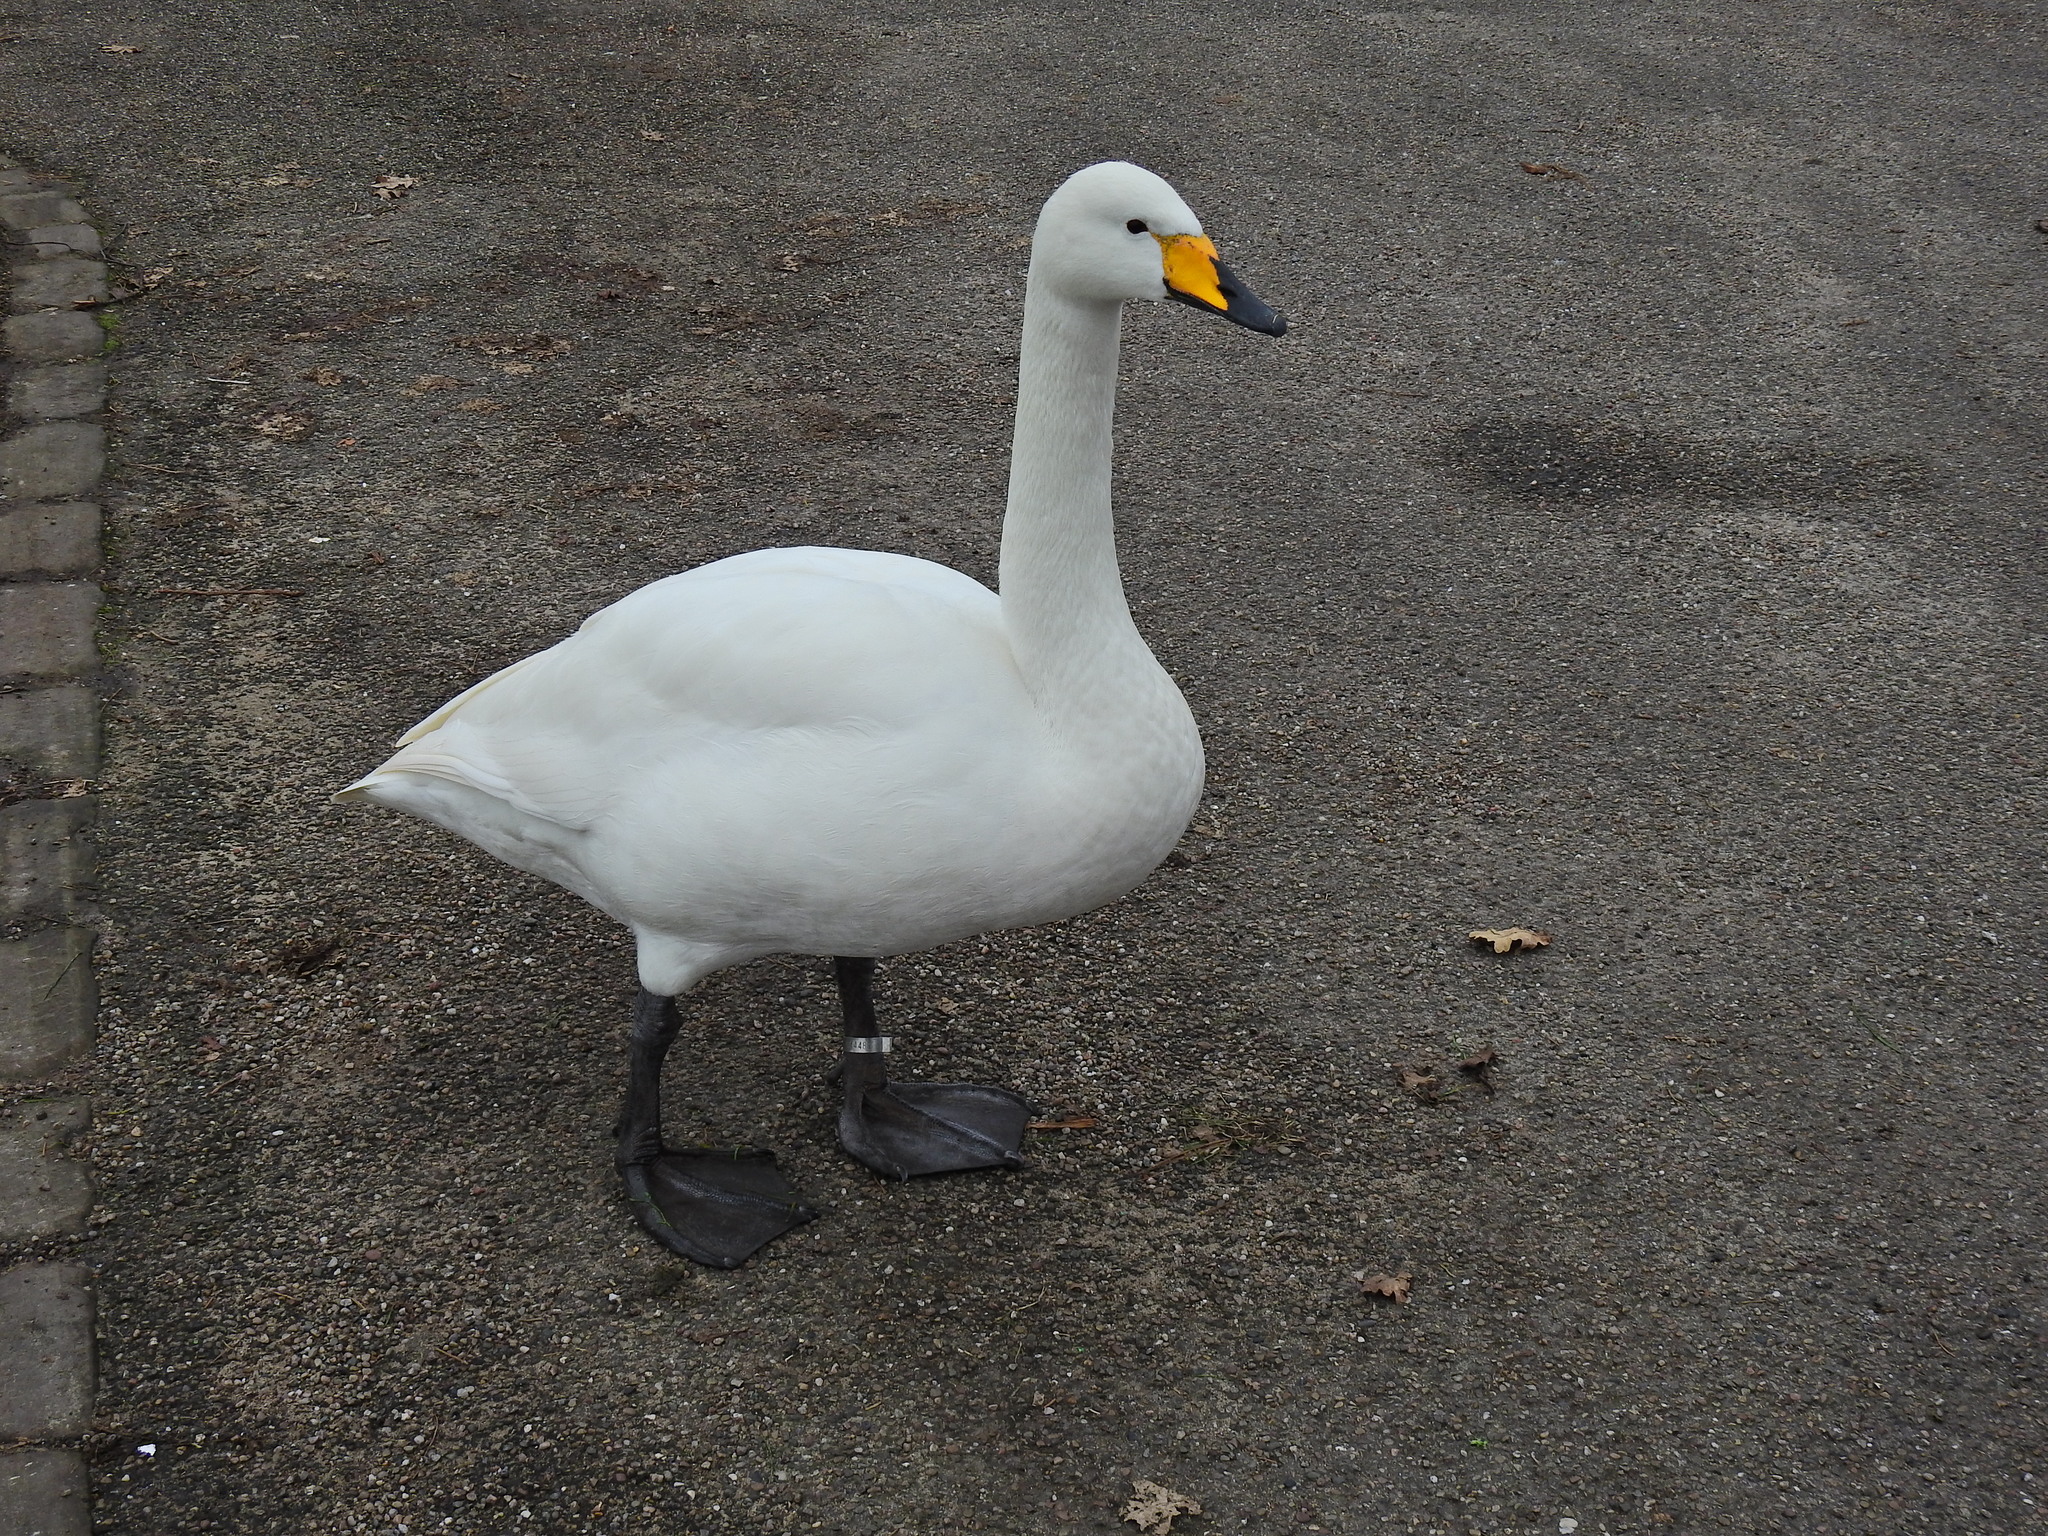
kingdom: Animalia
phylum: Chordata
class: Aves
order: Anseriformes
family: Anatidae
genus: Cygnus
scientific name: Cygnus cygnus
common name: Whooper swan
